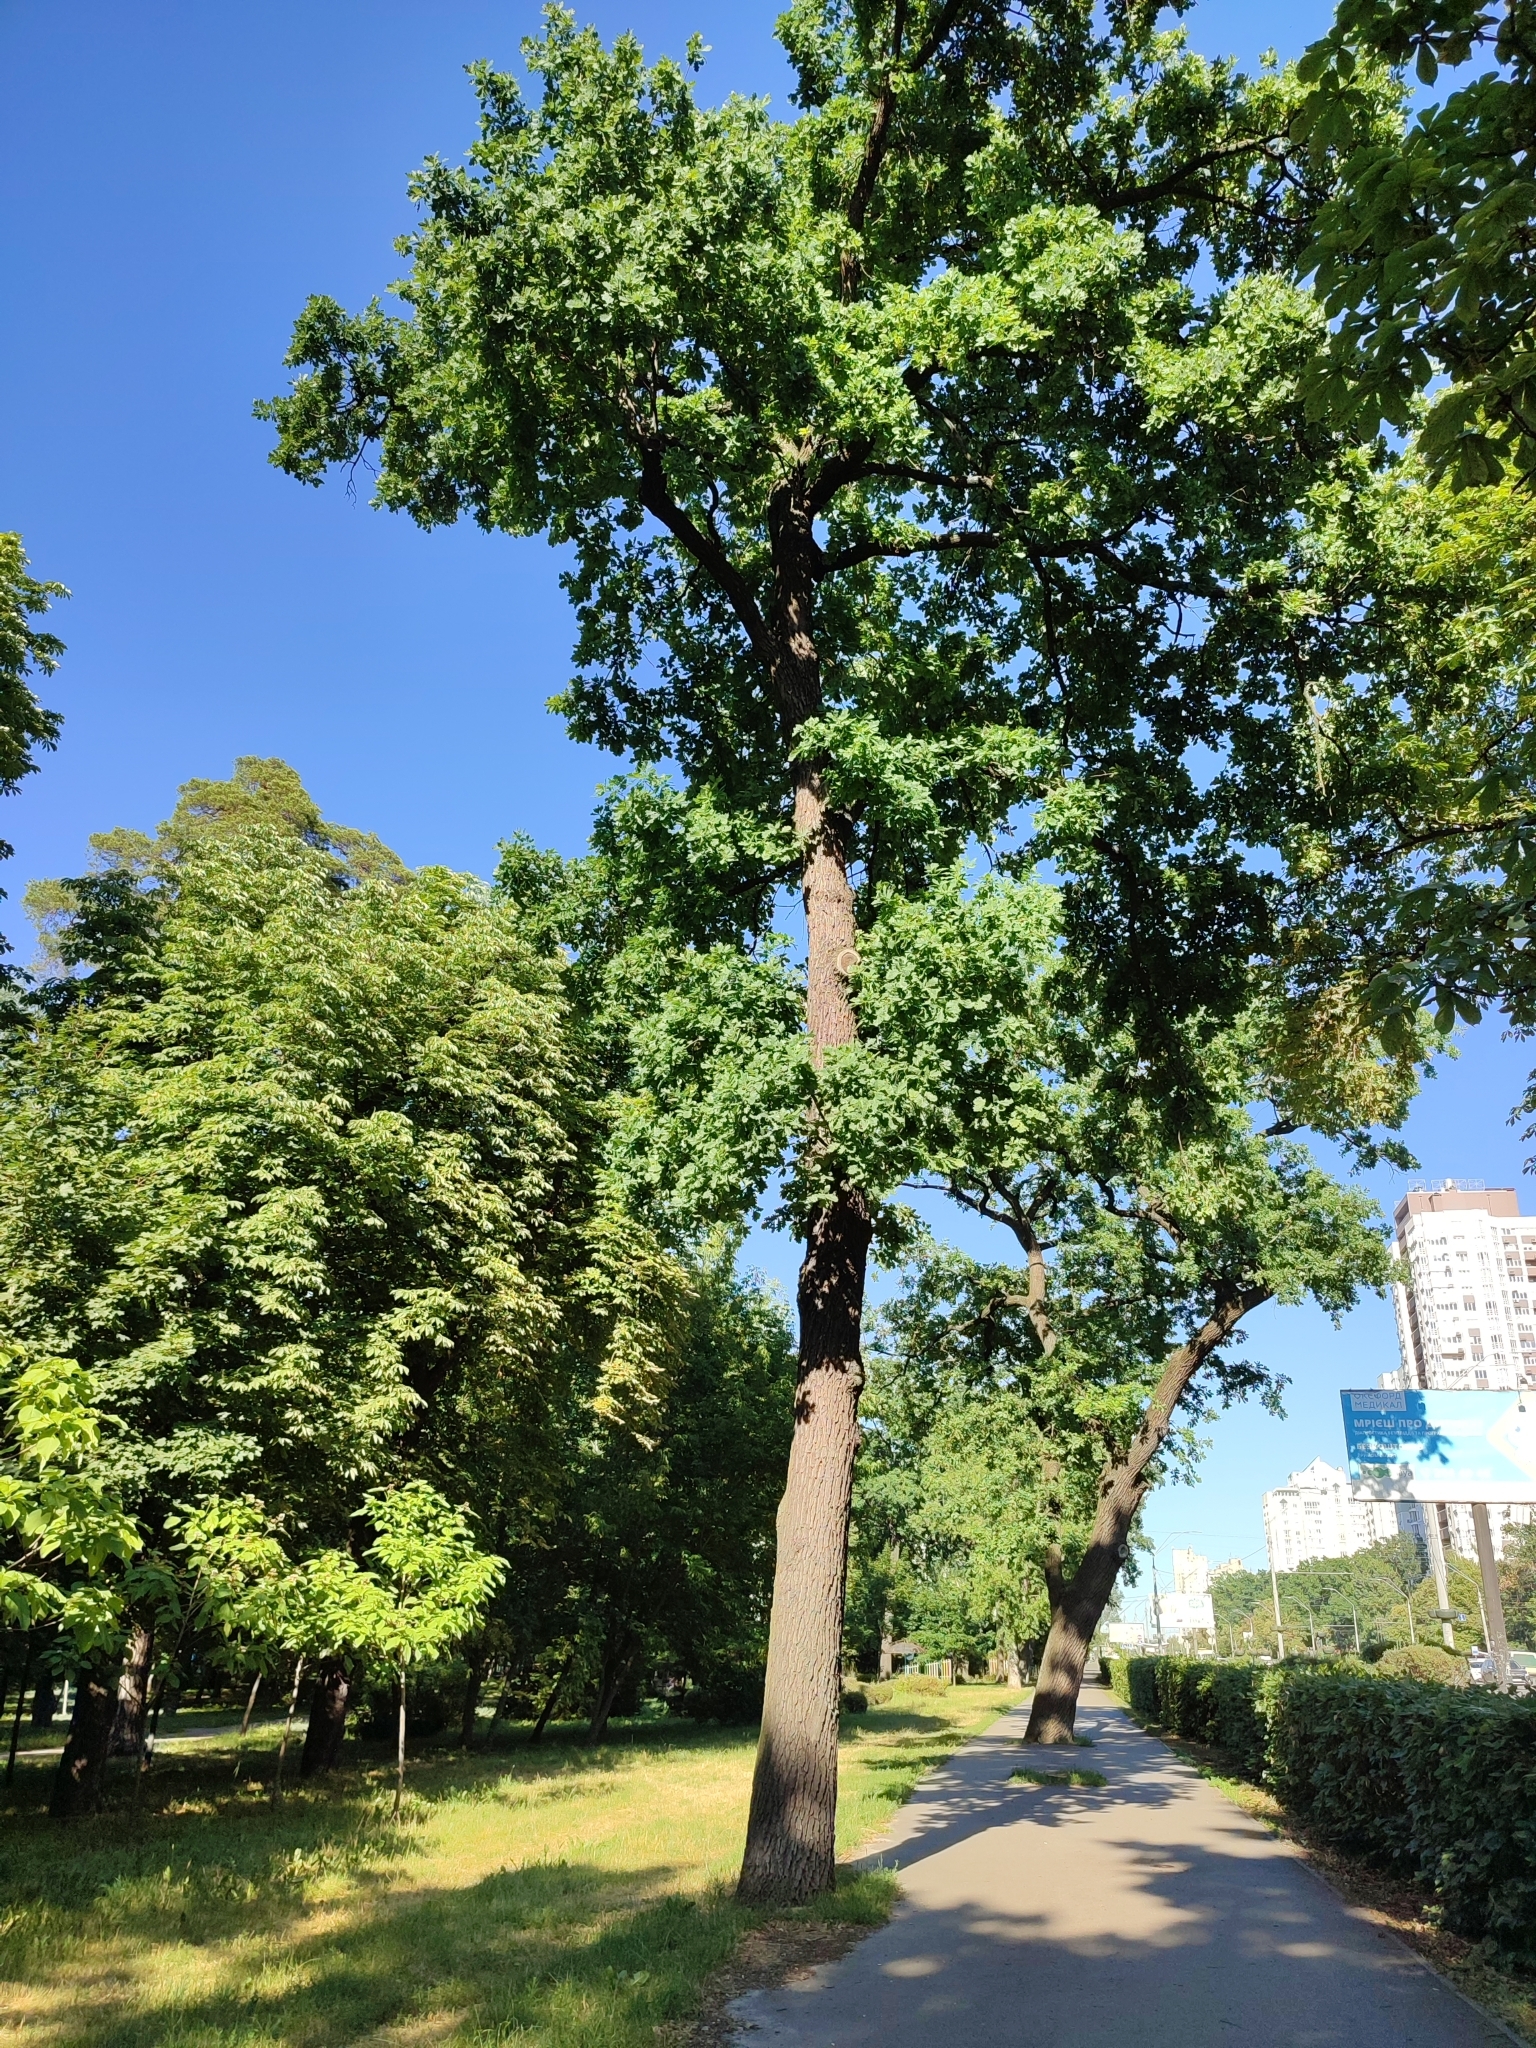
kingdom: Plantae
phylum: Tracheophyta
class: Magnoliopsida
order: Fagales
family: Fagaceae
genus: Quercus
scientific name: Quercus robur
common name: Pedunculate oak
